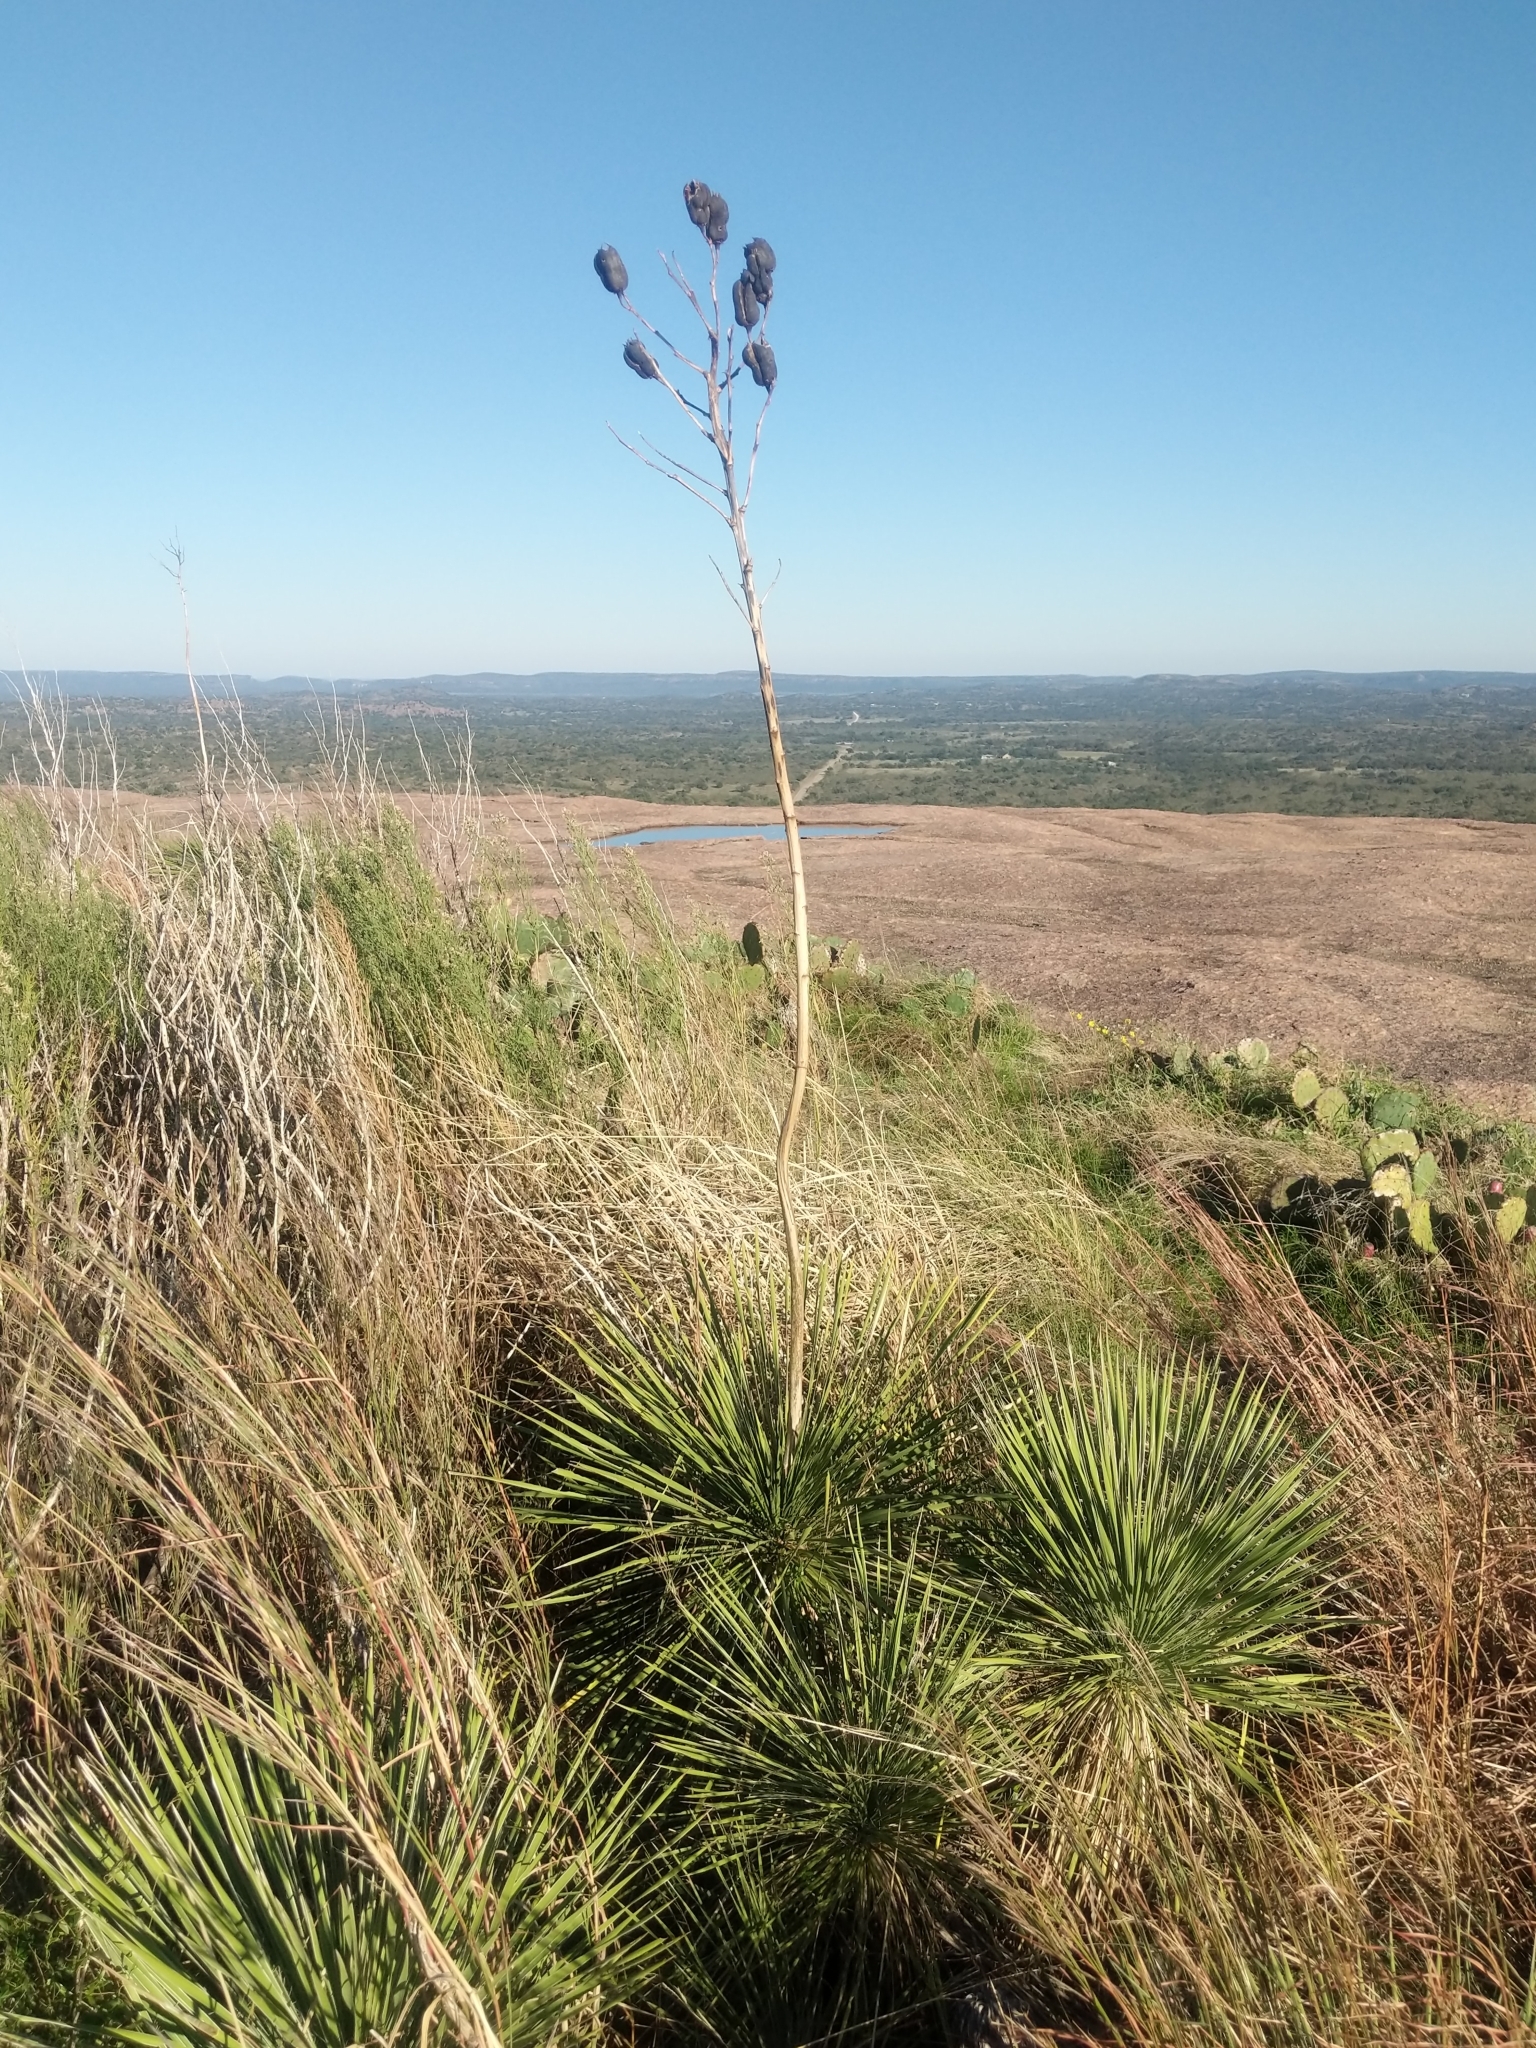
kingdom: Plantae
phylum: Tracheophyta
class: Liliopsida
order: Asparagales
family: Asparagaceae
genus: Yucca
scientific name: Yucca constricta
